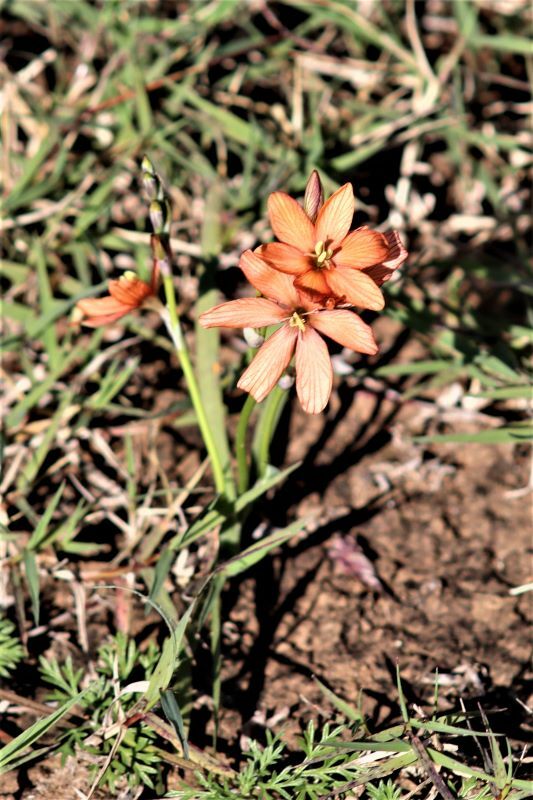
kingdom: Plantae
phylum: Tracheophyta
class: Liliopsida
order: Asparagales
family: Iridaceae
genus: Tritonia
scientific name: Tritonia dubia
